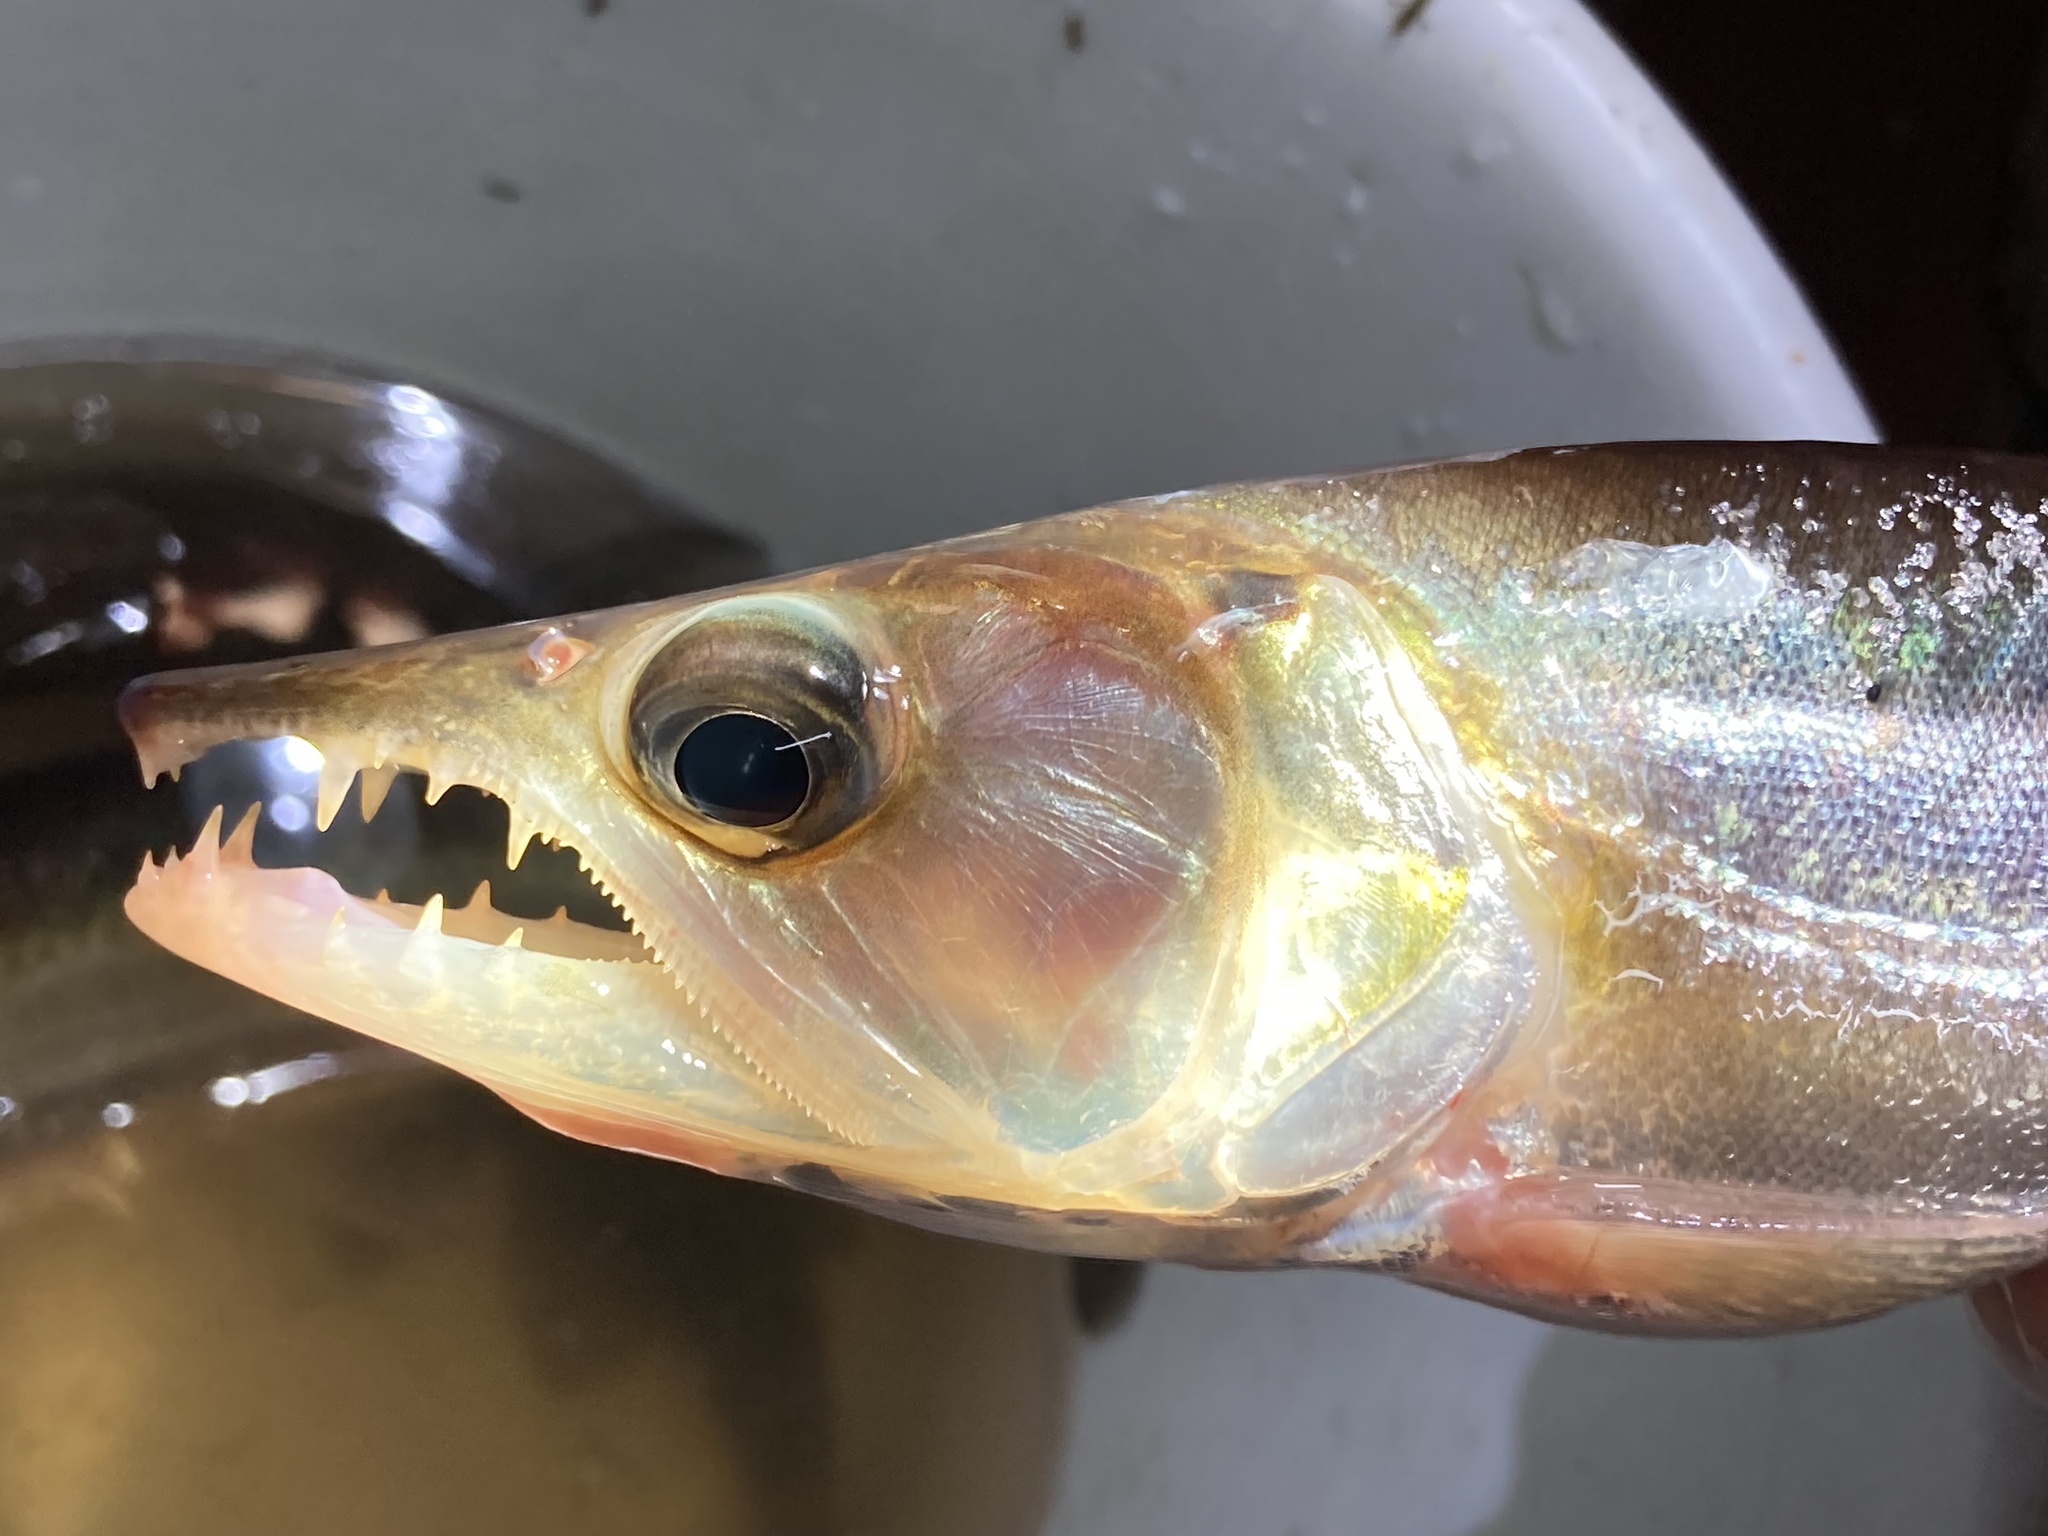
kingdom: Animalia
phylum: Chordata
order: Characiformes
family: Acestrorhynchidae
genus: Acestrorhynchus
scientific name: Acestrorhynchus heterolepis
